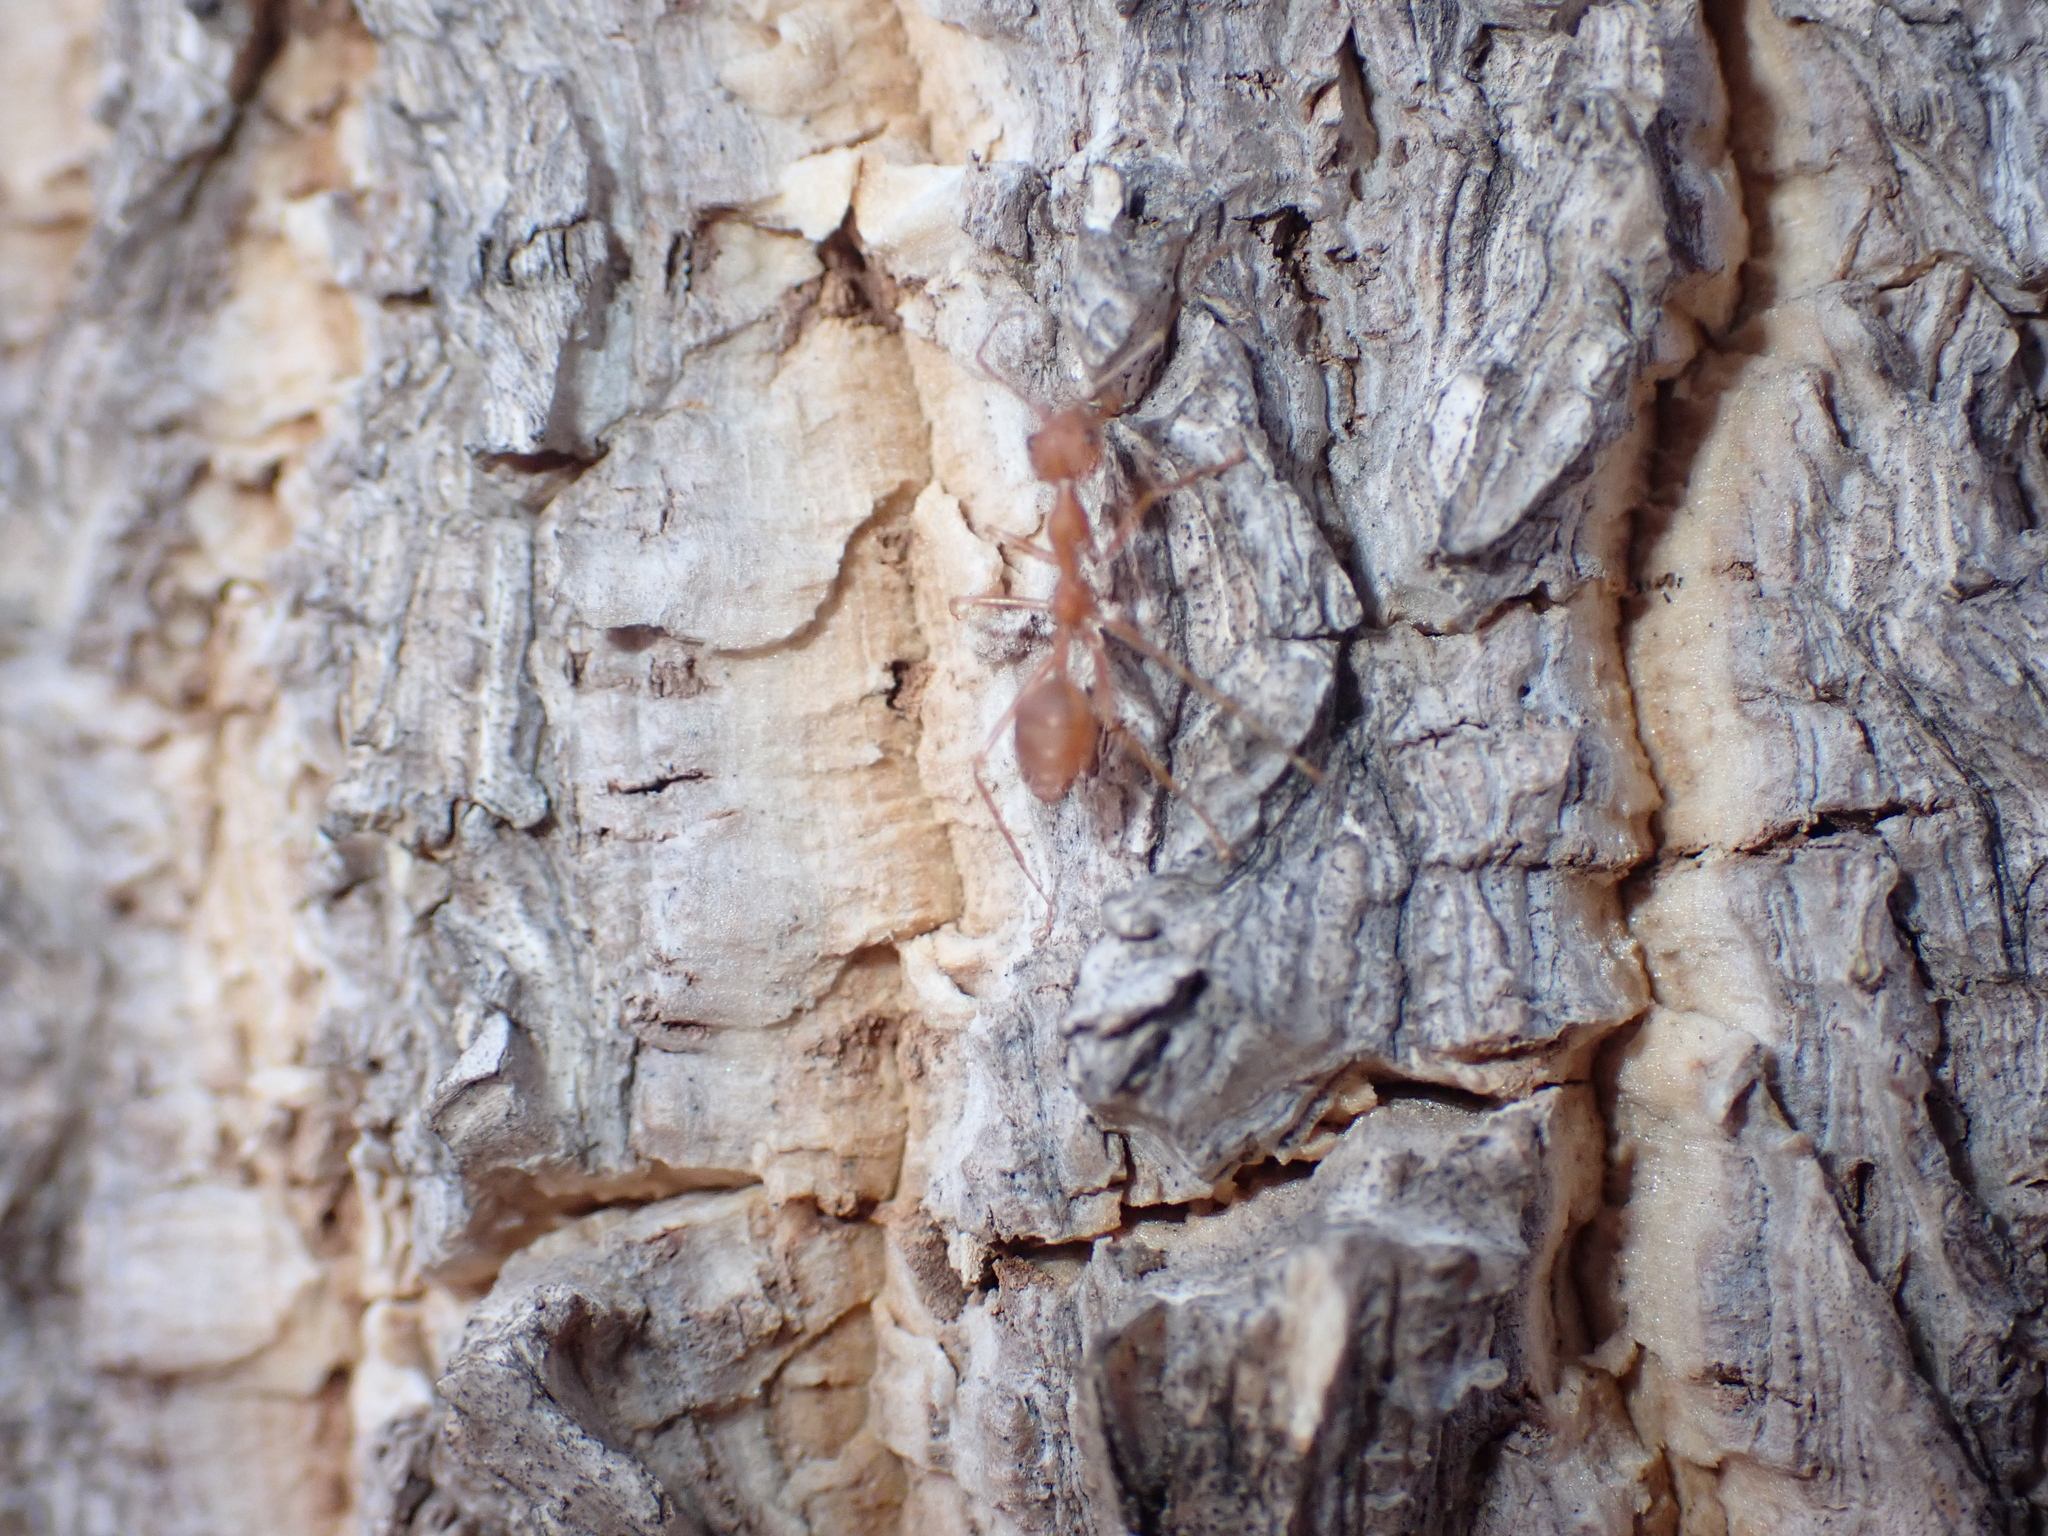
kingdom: Animalia
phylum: Arthropoda
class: Insecta
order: Hymenoptera
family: Formicidae
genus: Oecophylla
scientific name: Oecophylla smaragdina
